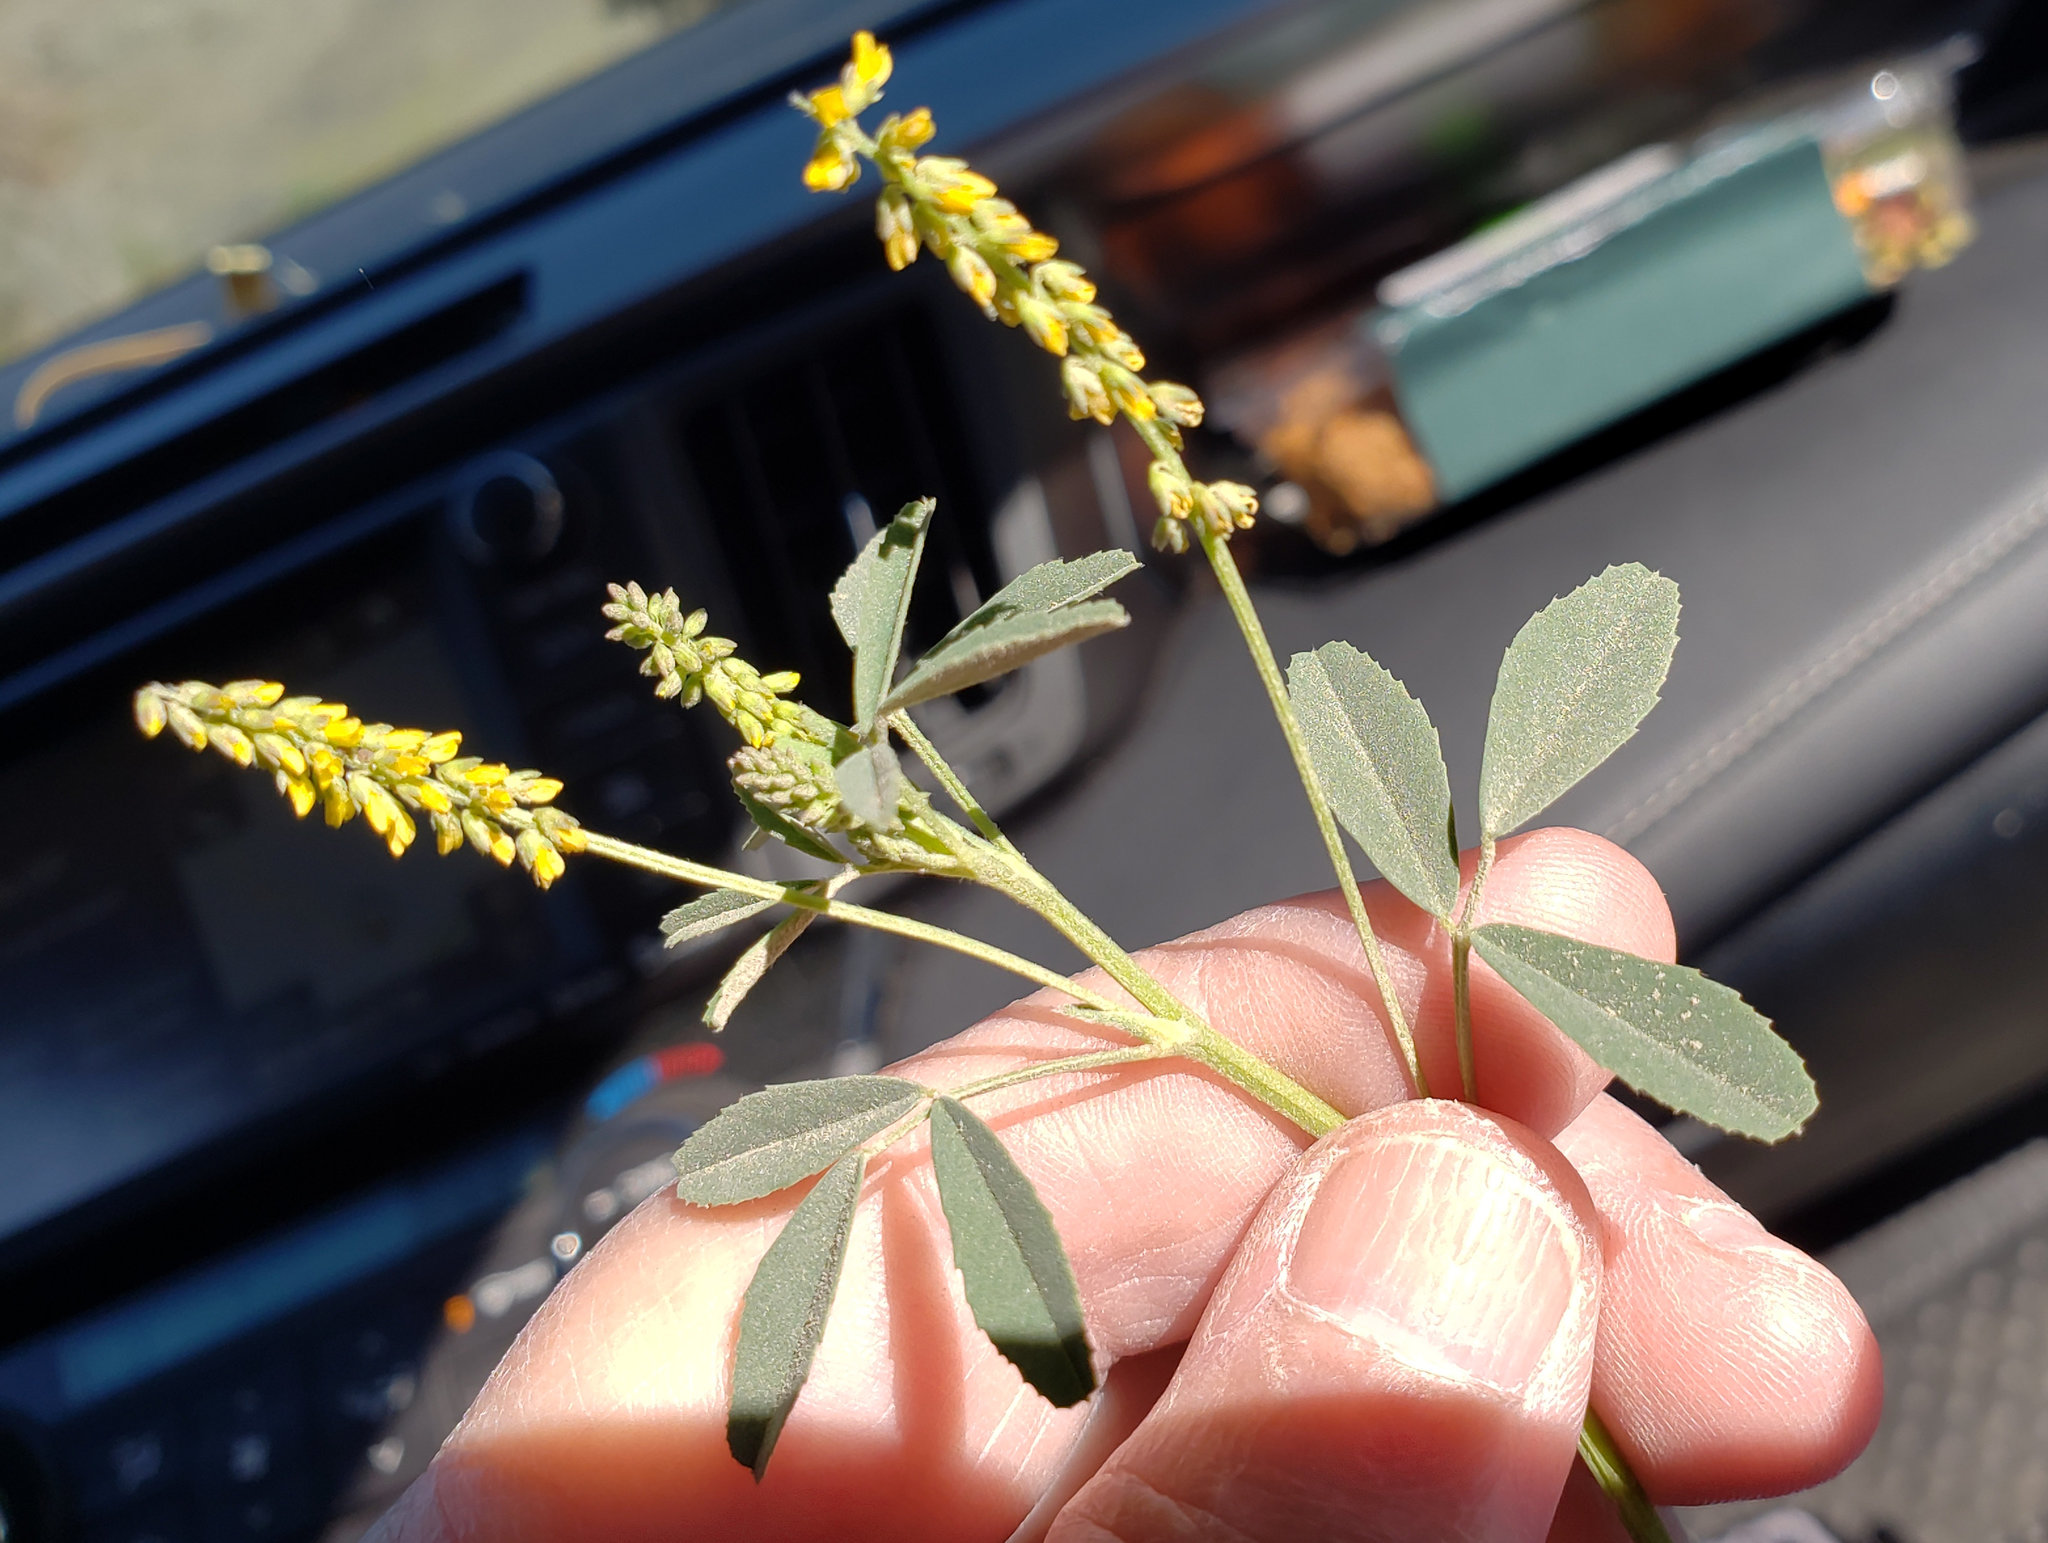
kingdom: Plantae
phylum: Tracheophyta
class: Magnoliopsida
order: Fabales
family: Fabaceae
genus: Melilotus
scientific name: Melilotus indicus
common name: Small melilot
